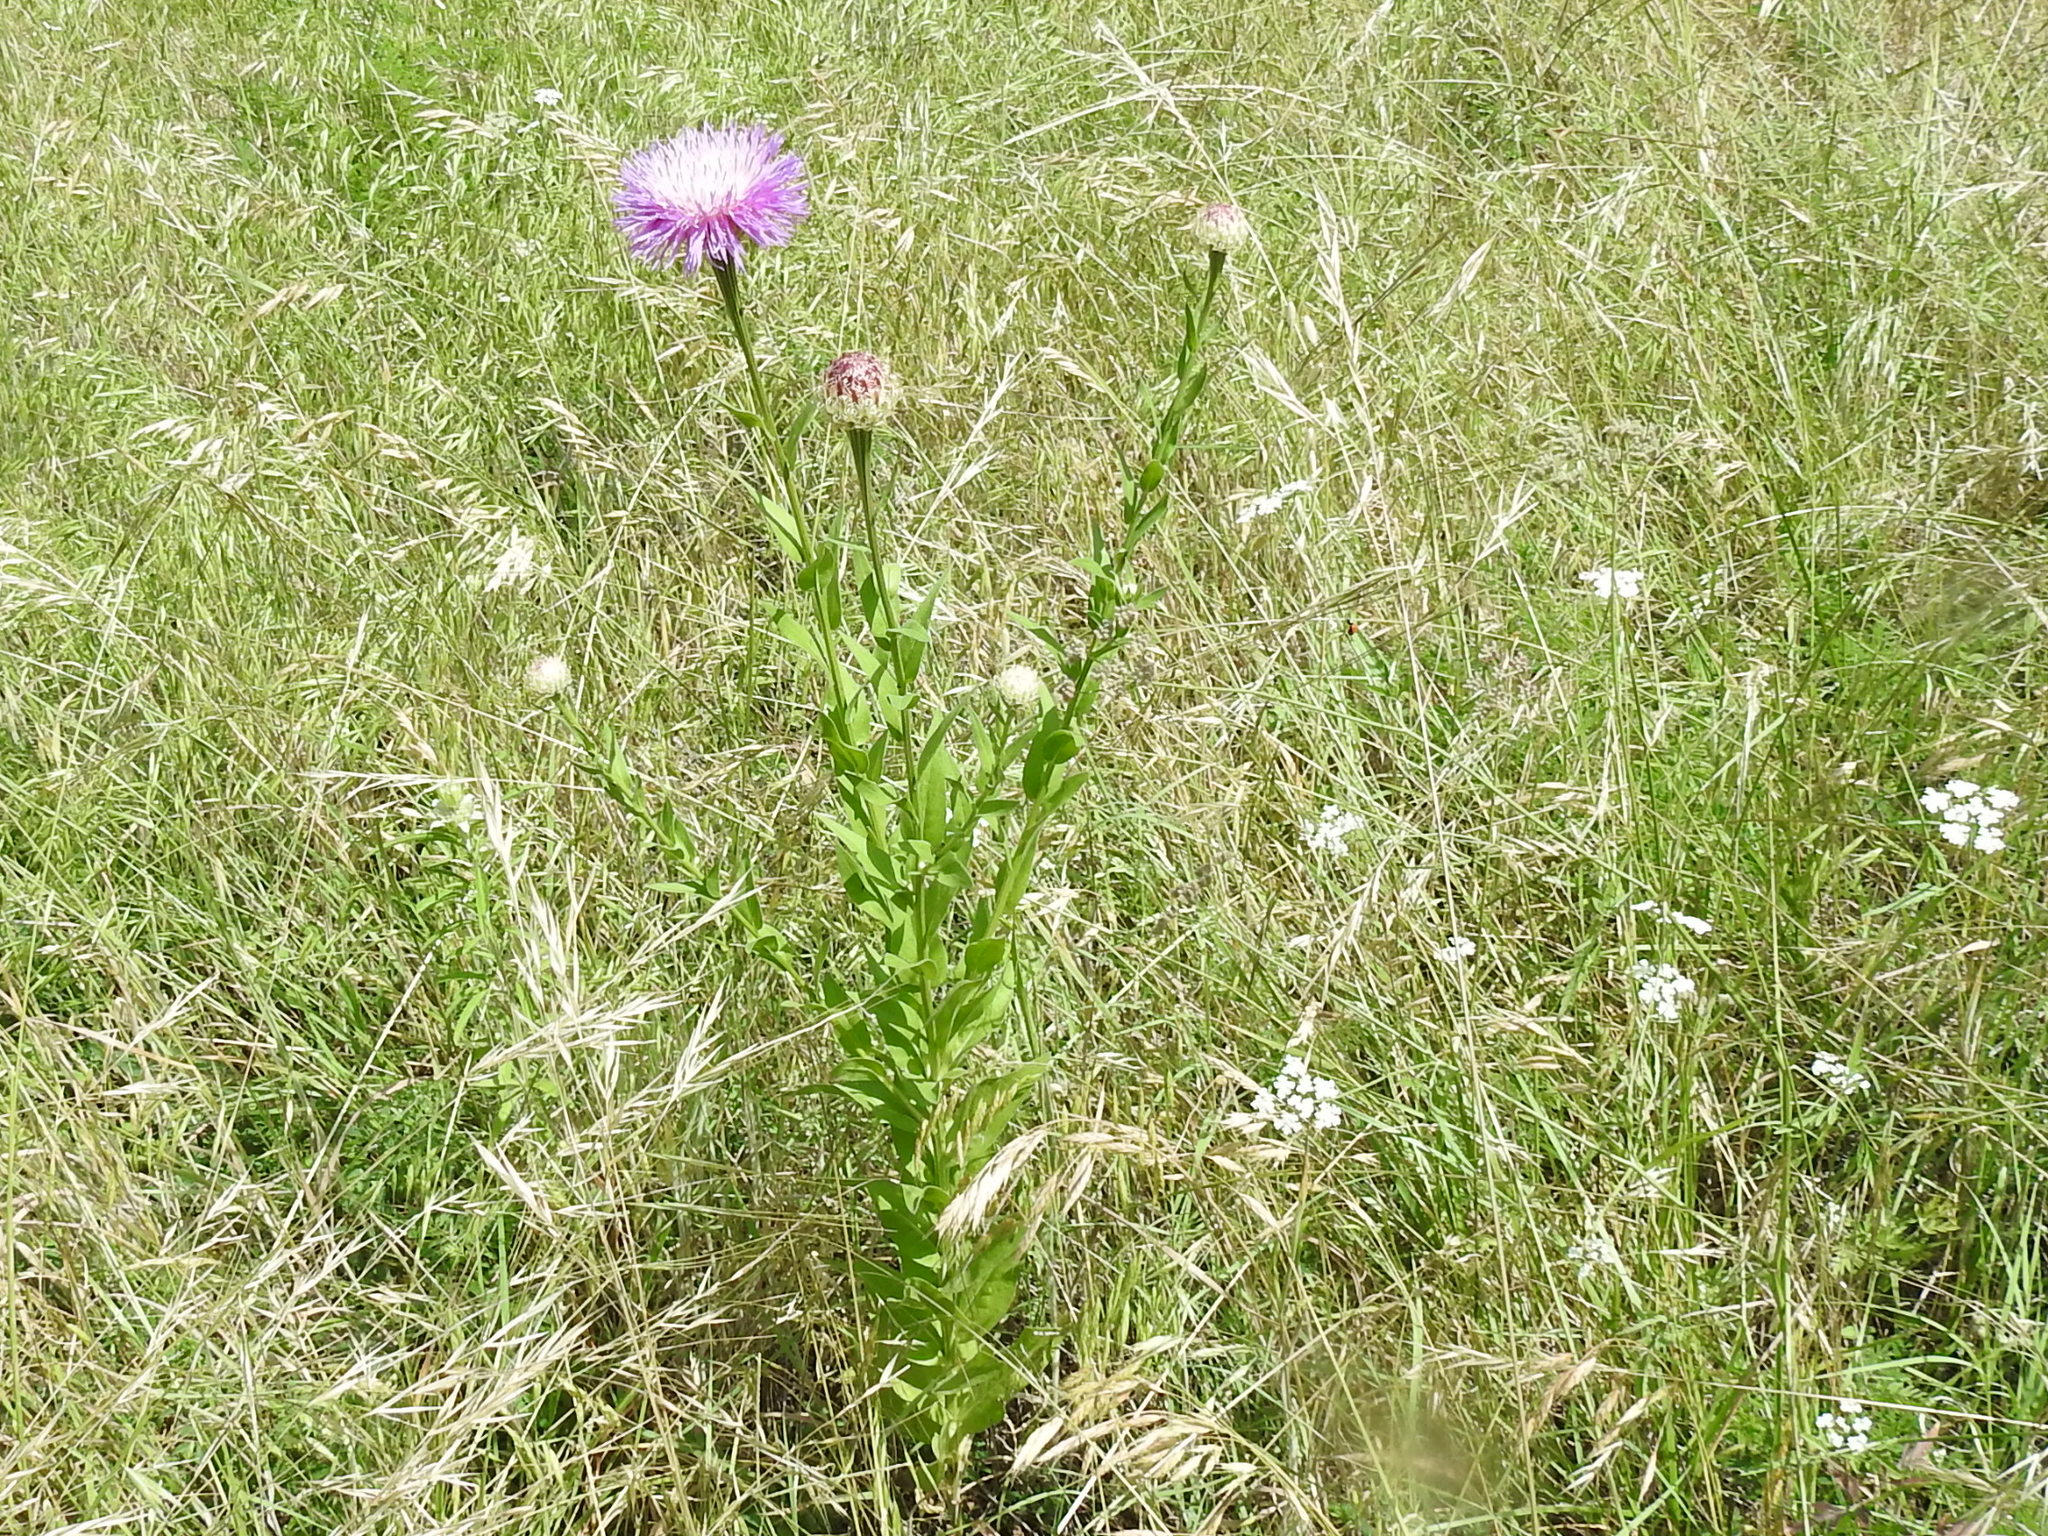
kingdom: Plantae
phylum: Tracheophyta
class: Magnoliopsida
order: Asterales
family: Asteraceae
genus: Plectocephalus
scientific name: Plectocephalus americanus
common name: American basket-flower
